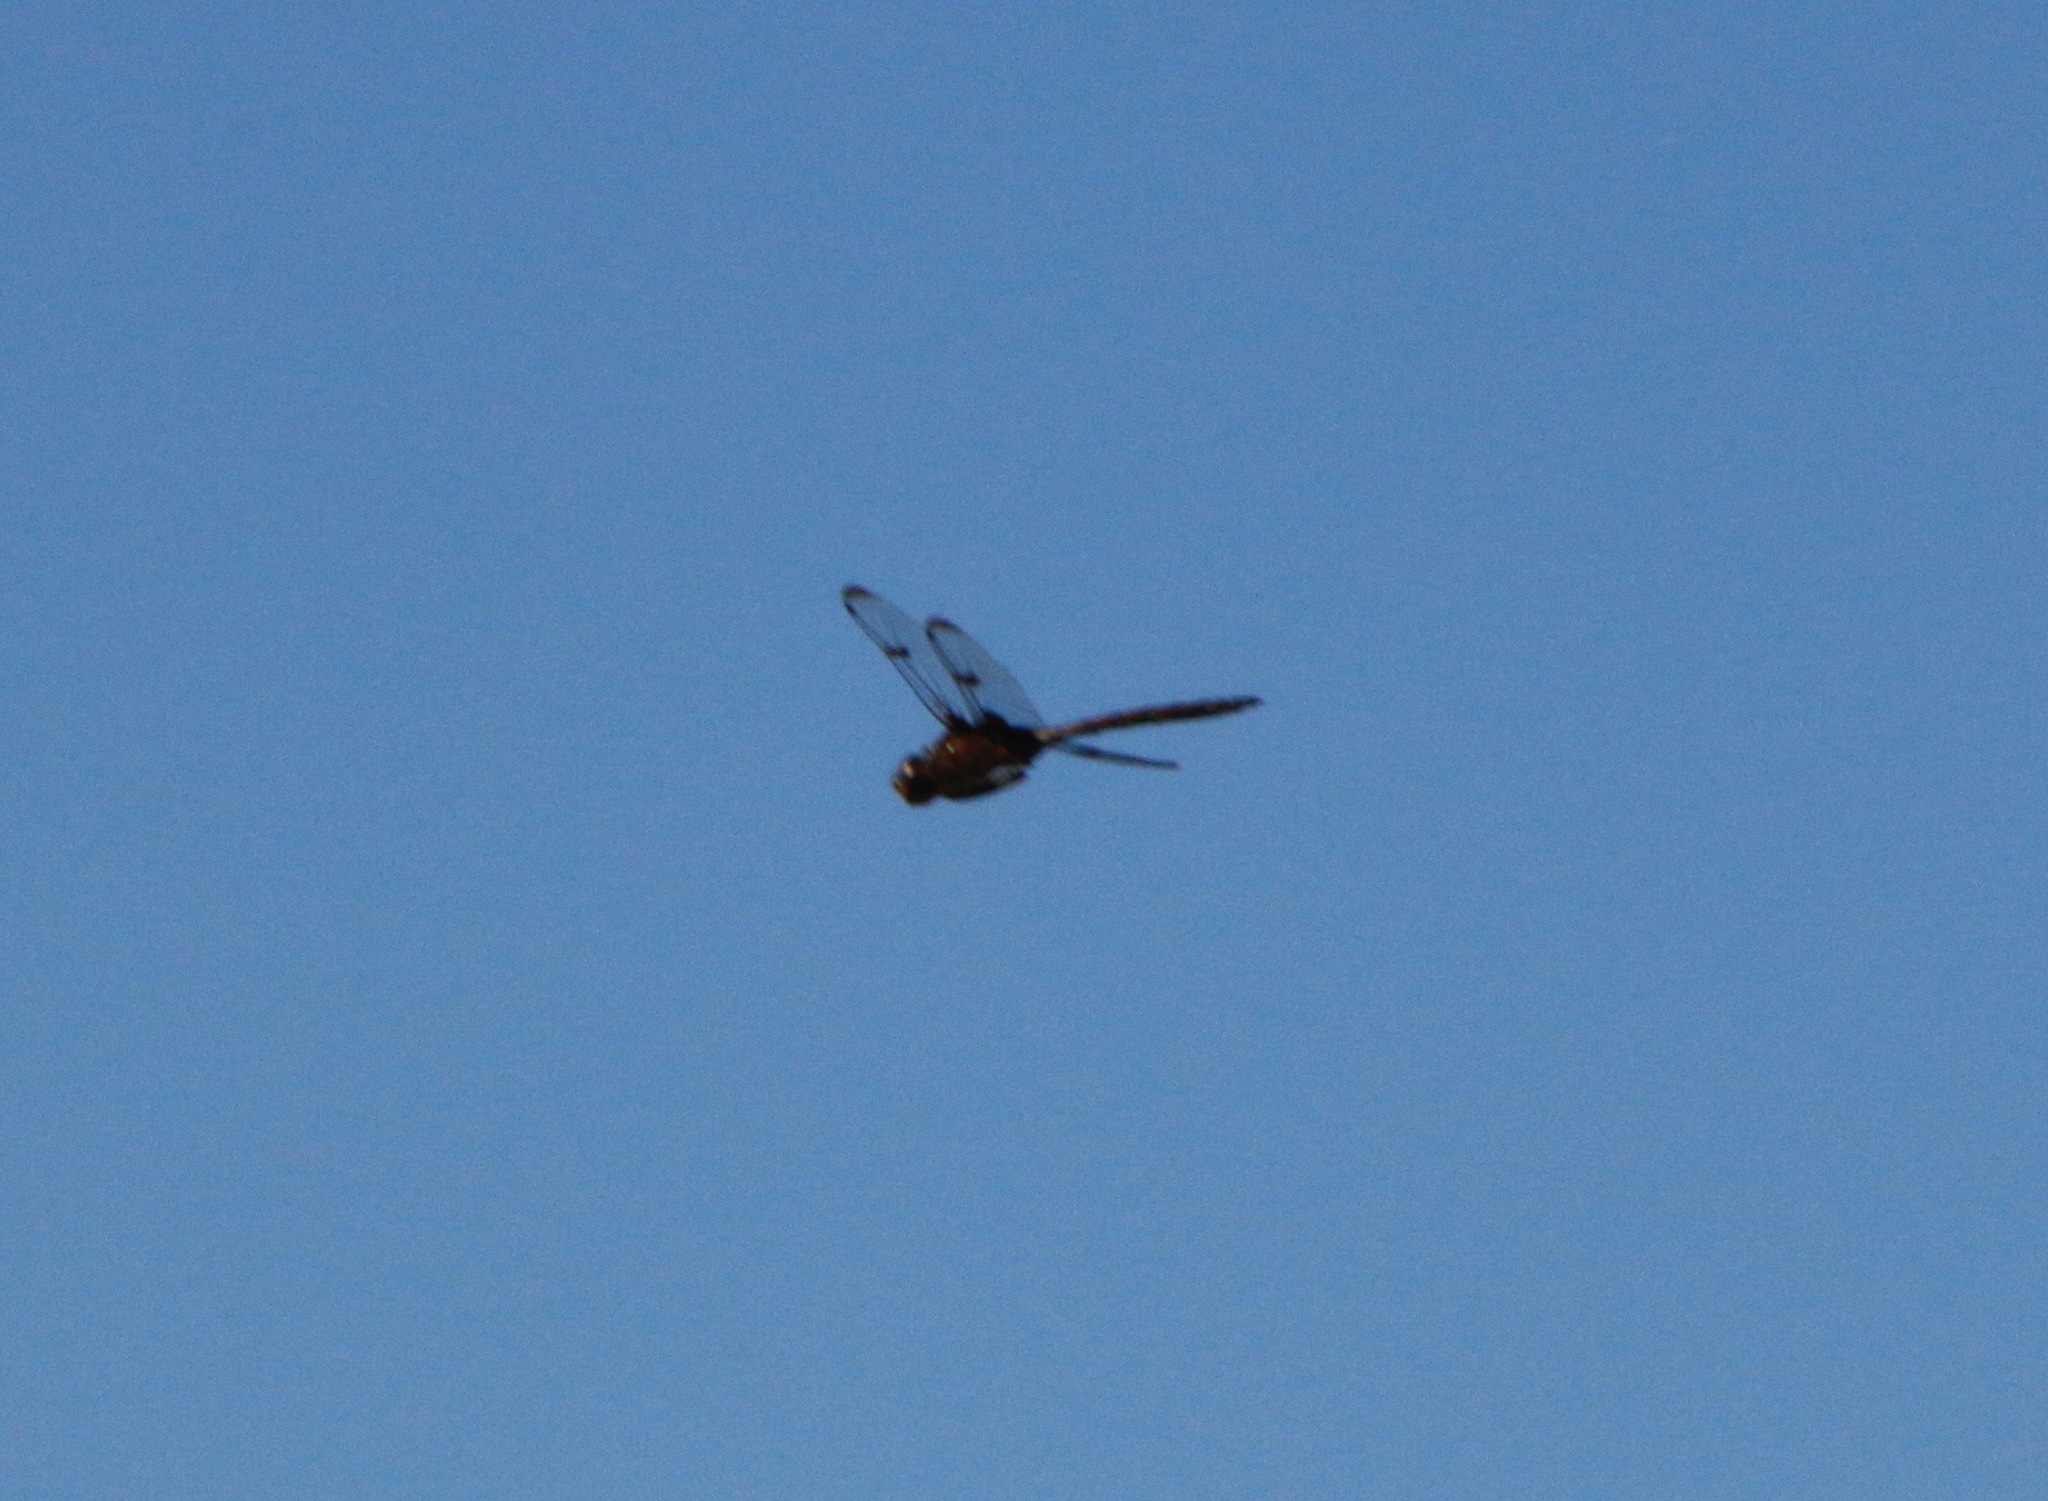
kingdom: Animalia
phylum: Arthropoda
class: Insecta
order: Odonata
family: Corduliidae
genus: Epitheca
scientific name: Epitheca princeps
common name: Prince baskettail
